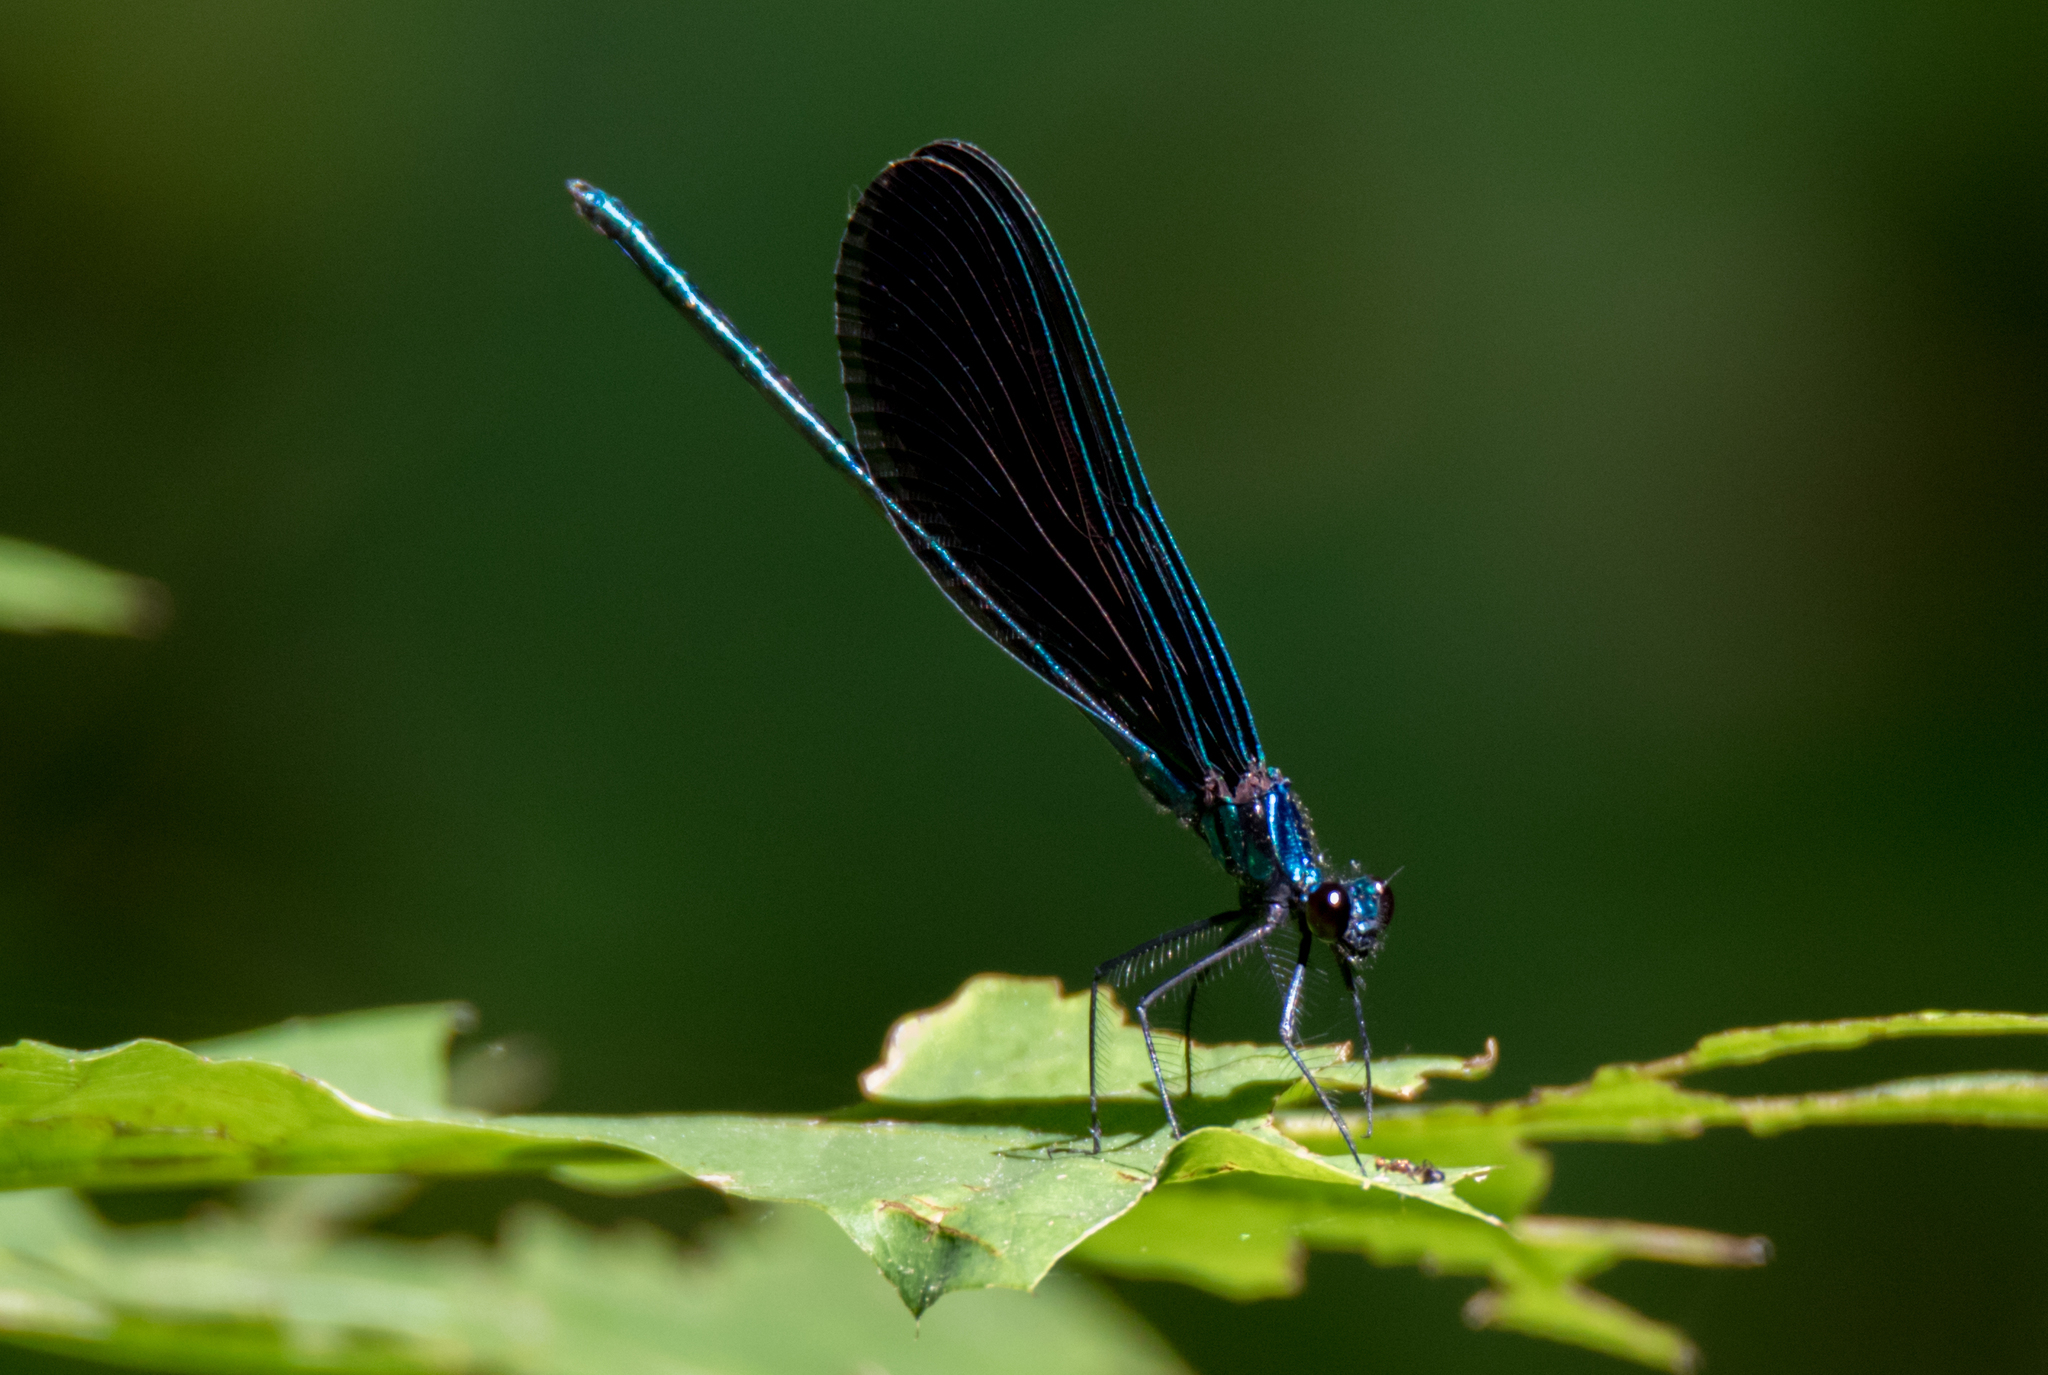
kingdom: Animalia
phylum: Arthropoda
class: Insecta
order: Odonata
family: Calopterygidae
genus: Calopteryx
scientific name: Calopteryx maculata
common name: Ebony jewelwing
